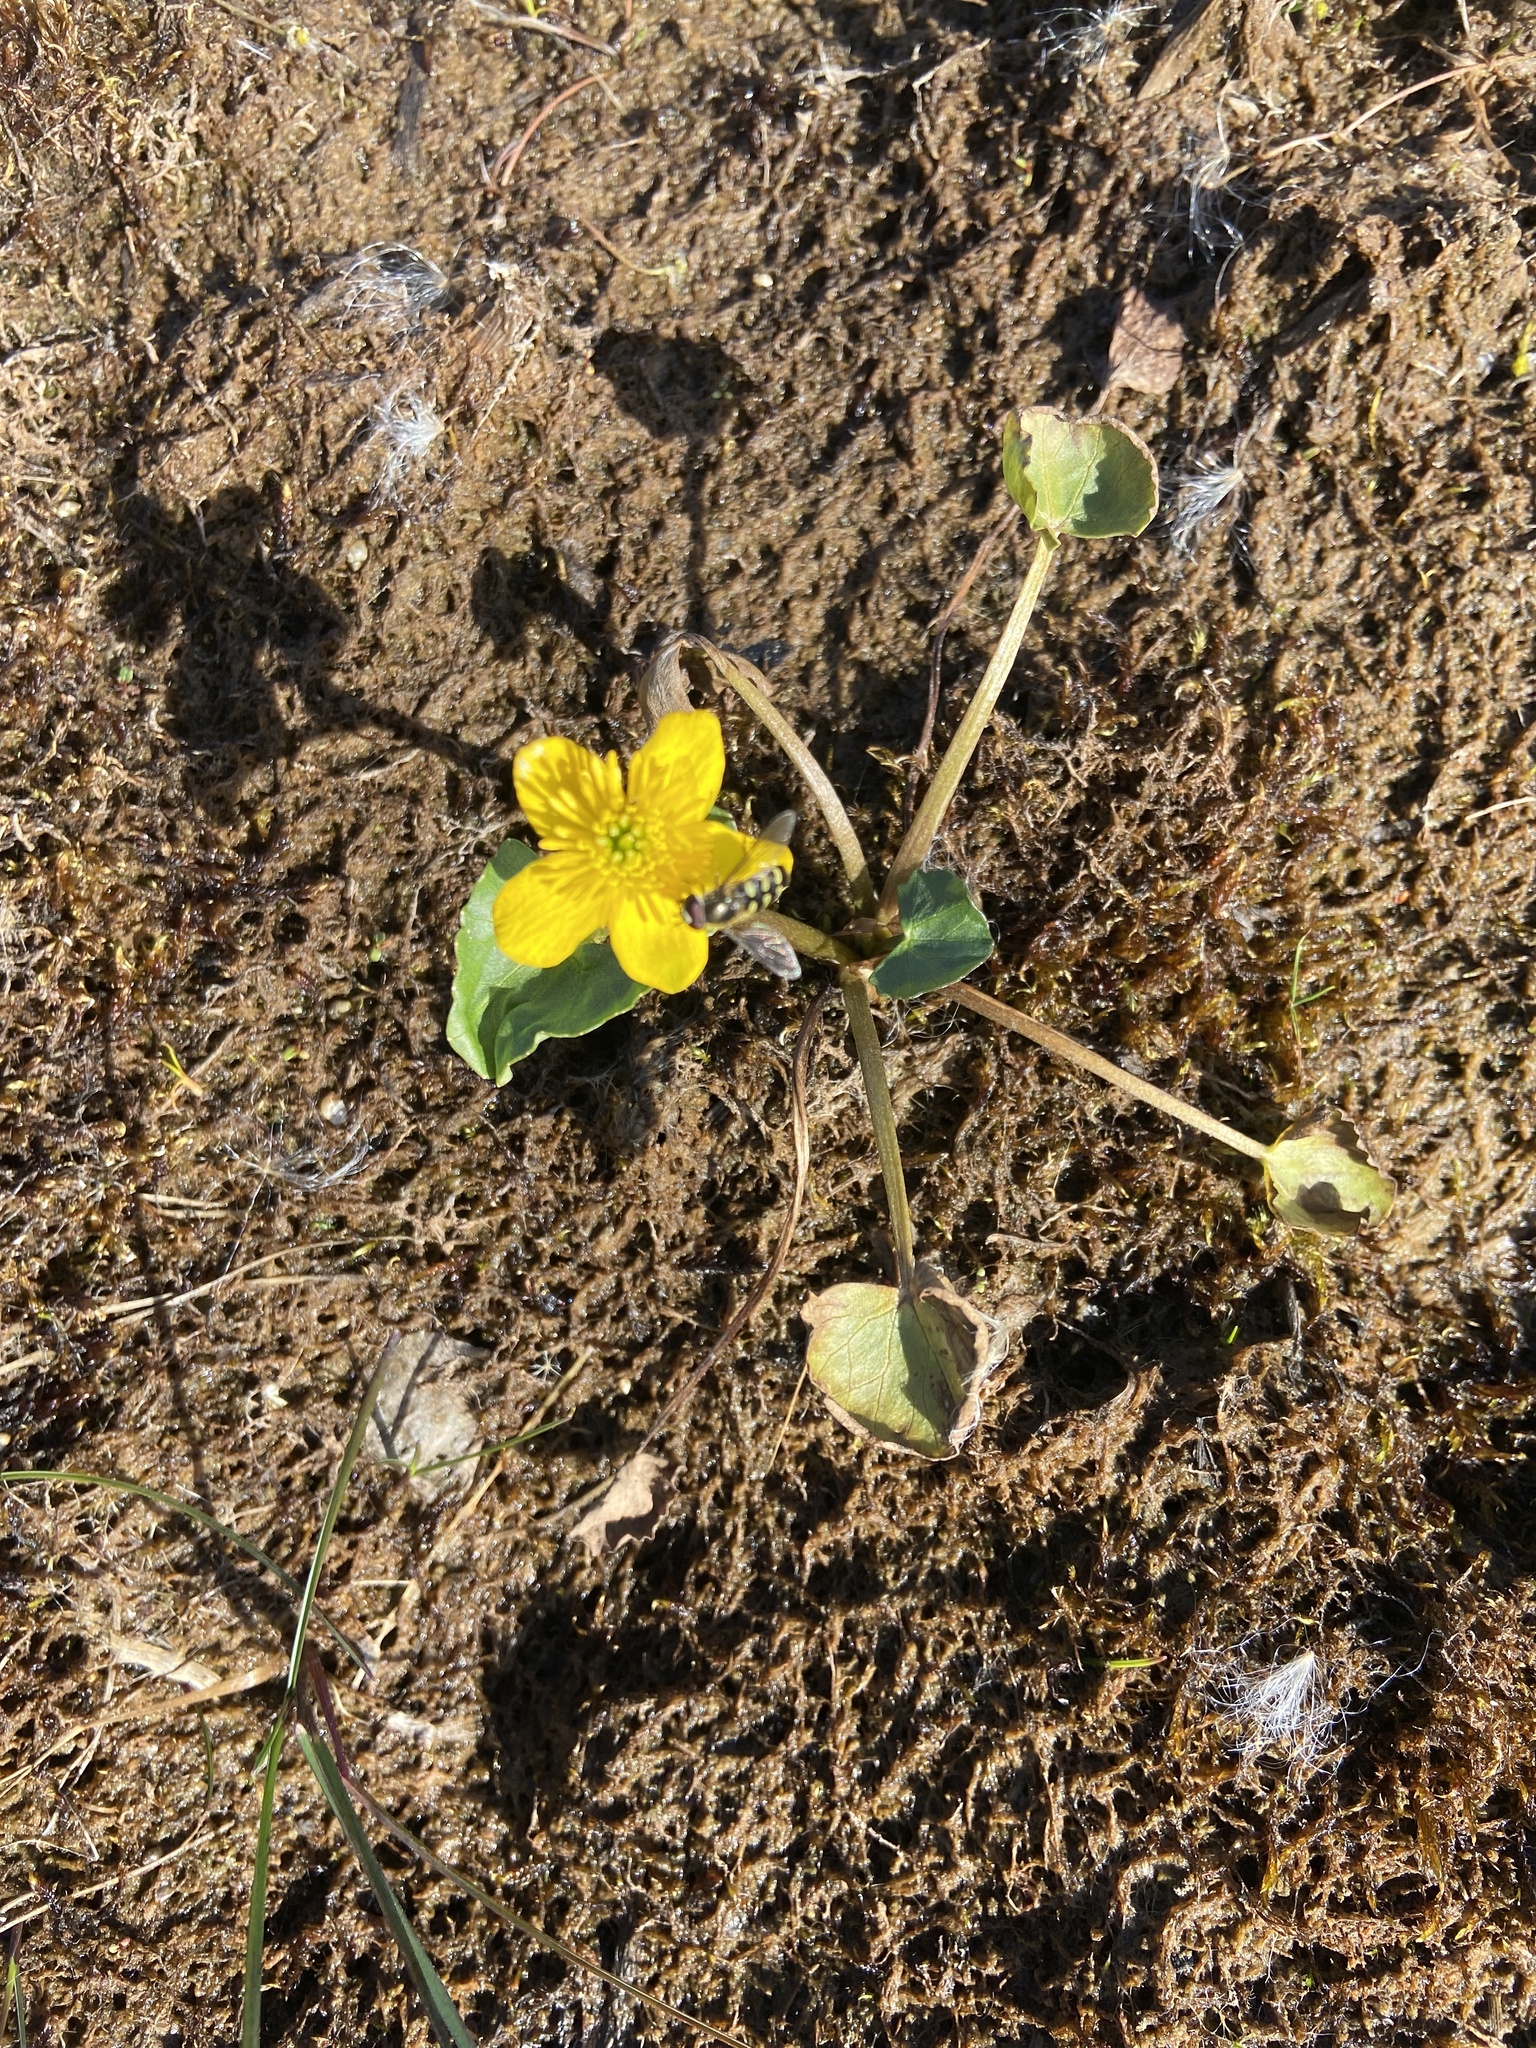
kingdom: Plantae
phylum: Tracheophyta
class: Magnoliopsida
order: Ranunculales
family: Ranunculaceae
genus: Caltha
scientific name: Caltha palustris
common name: Marsh marigold
